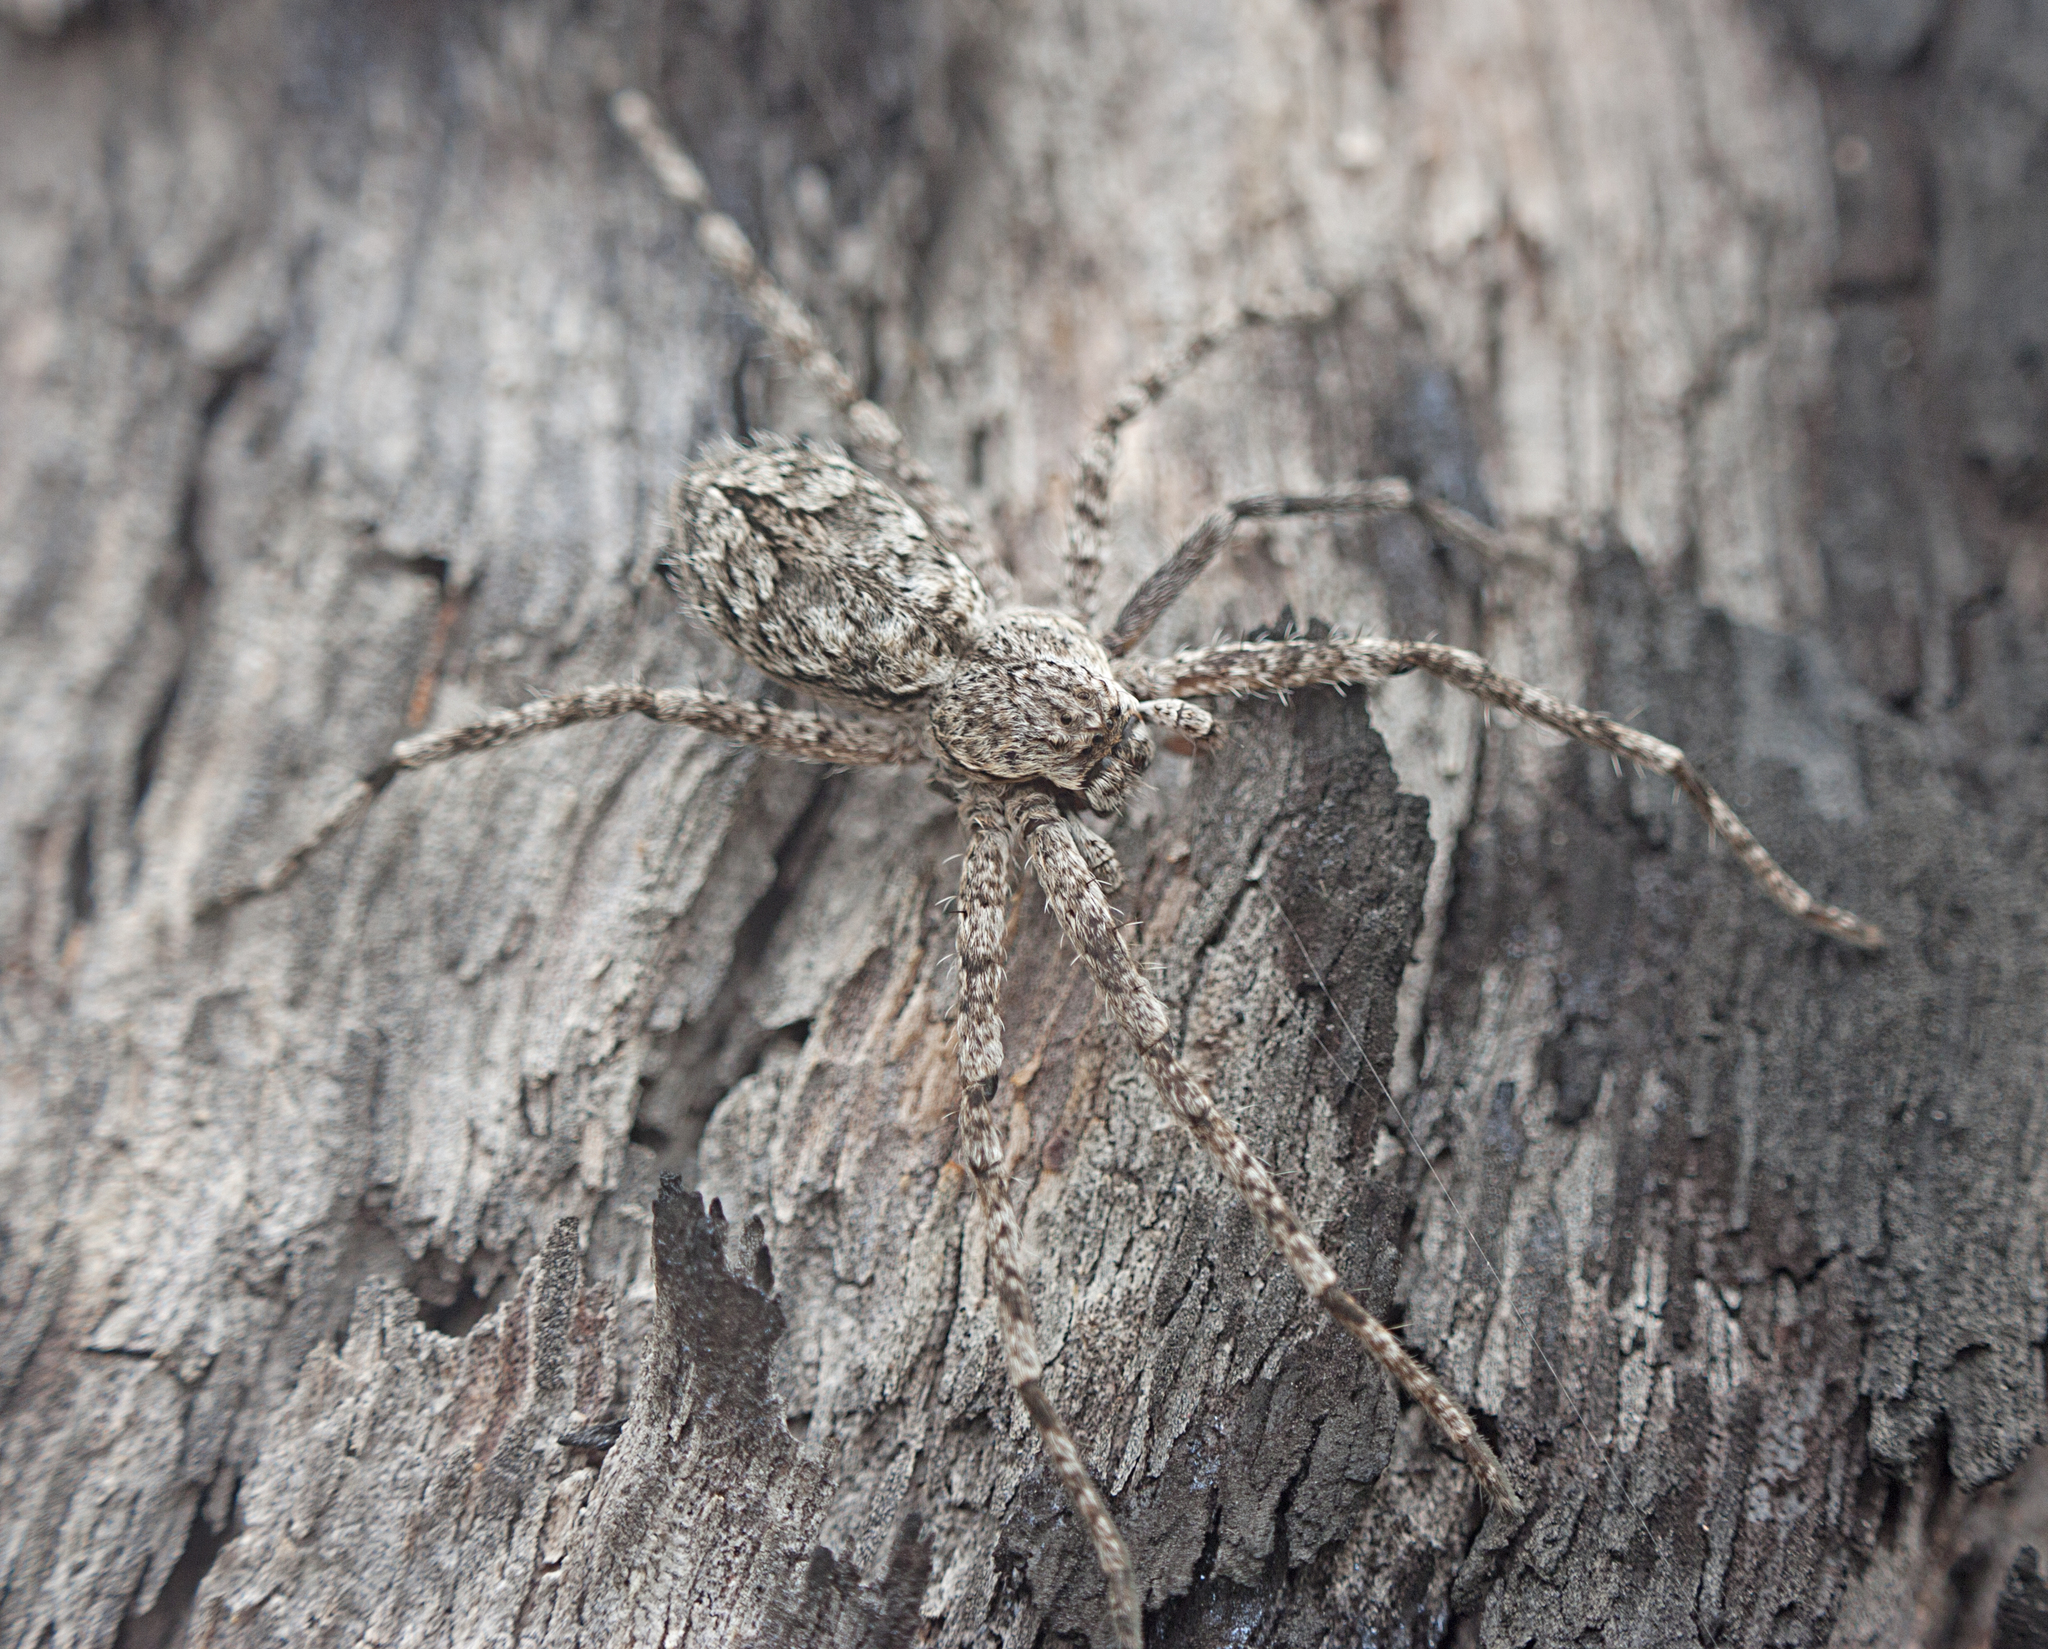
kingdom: Animalia
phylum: Arthropoda
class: Arachnida
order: Araneae
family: Sparassidae
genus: Pediana
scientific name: Pediana regina
